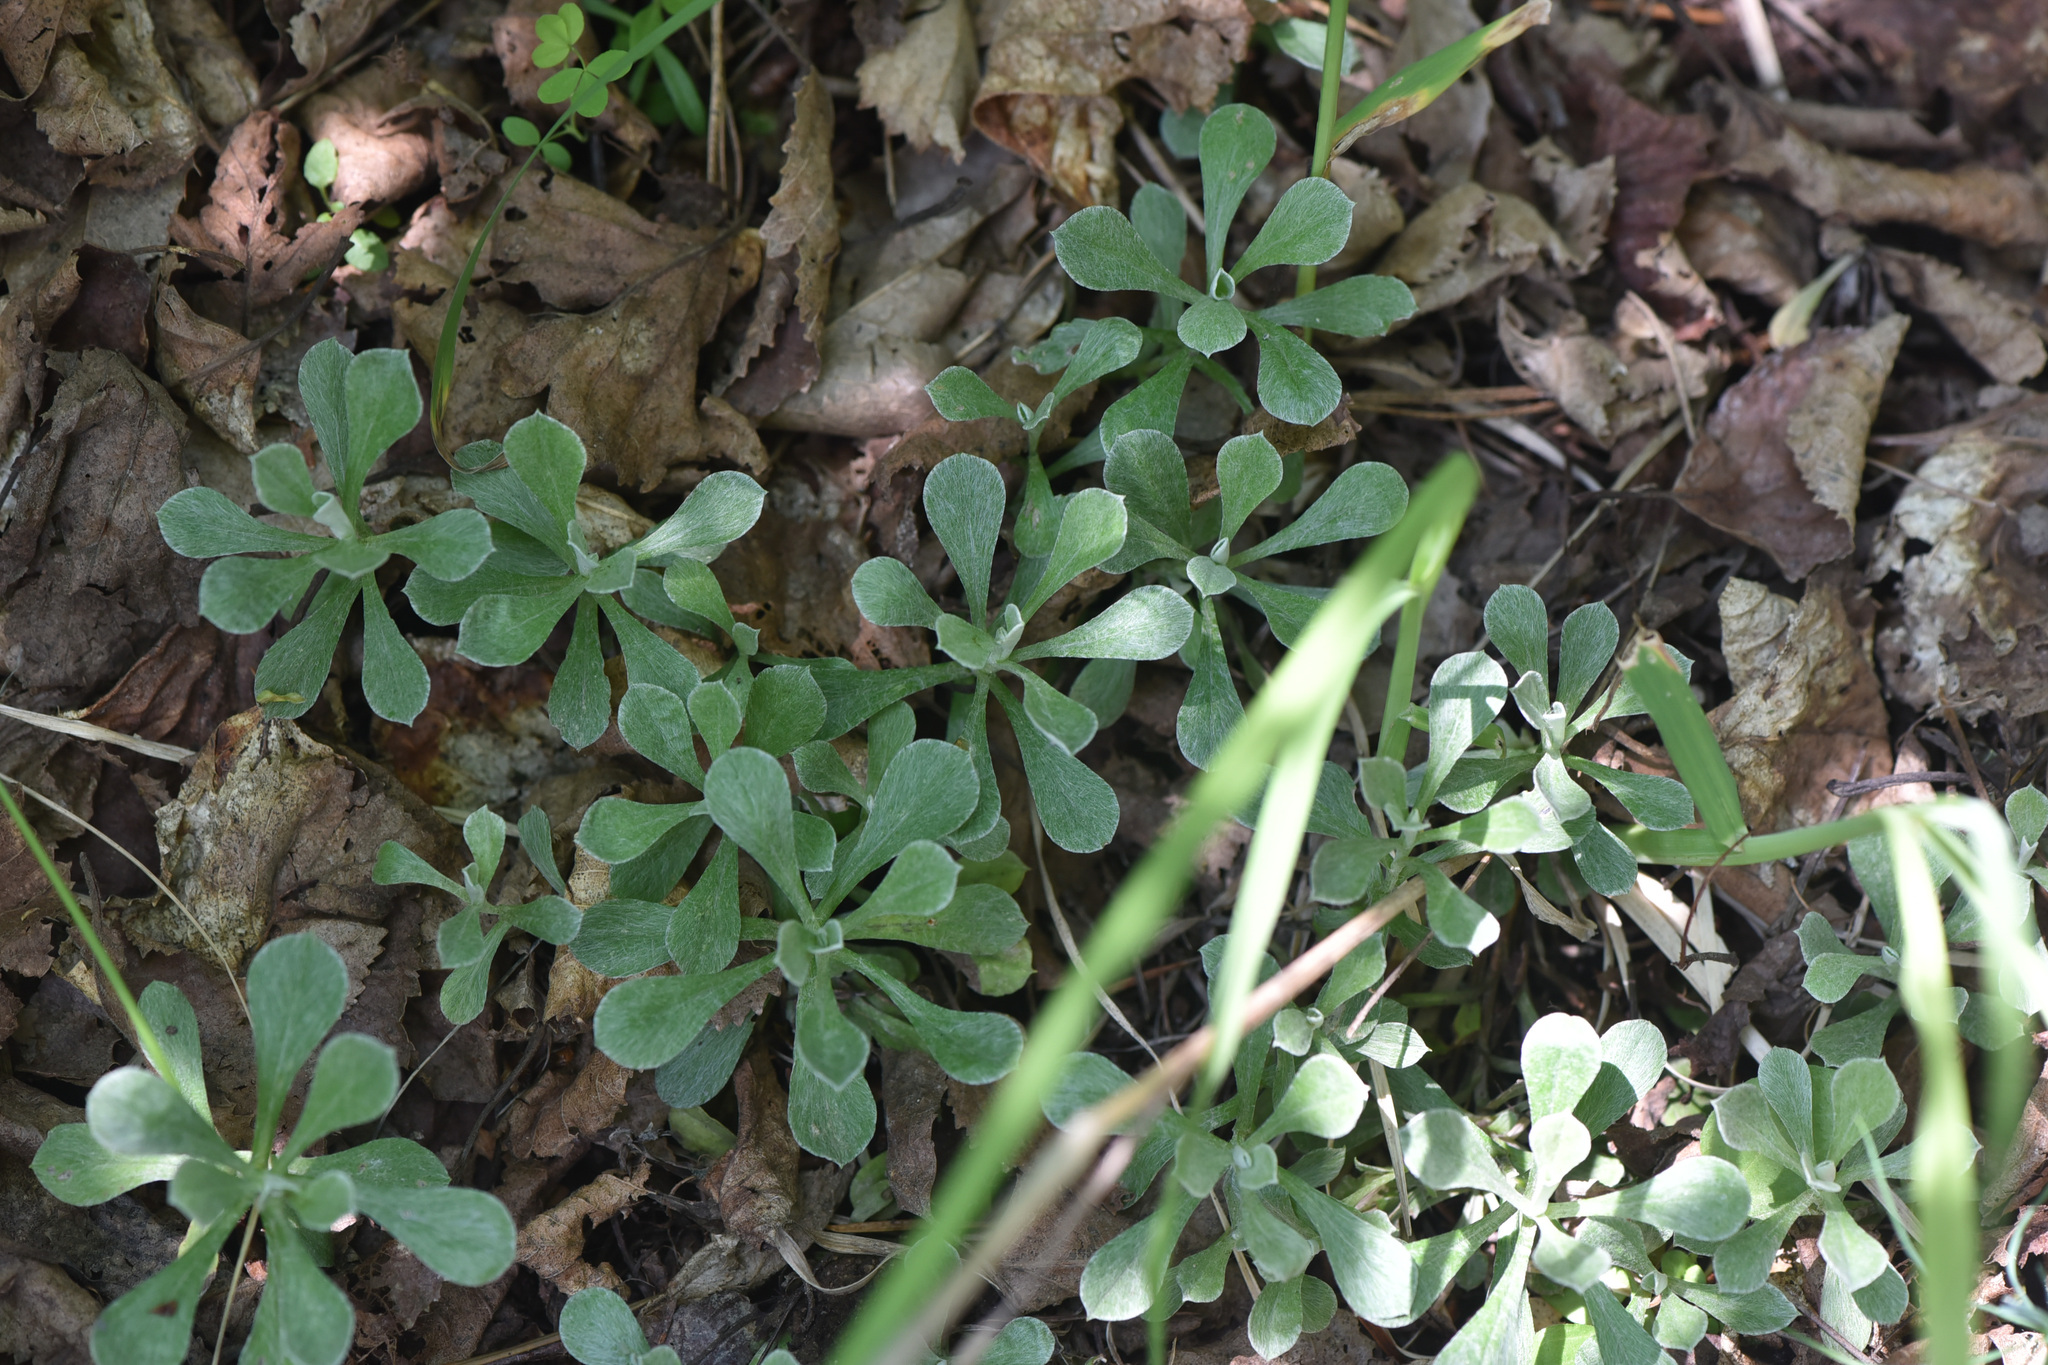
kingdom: Plantae
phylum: Tracheophyta
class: Magnoliopsida
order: Asterales
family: Asteraceae
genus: Antennaria
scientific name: Antennaria howellii
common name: Howell's pussytoes
